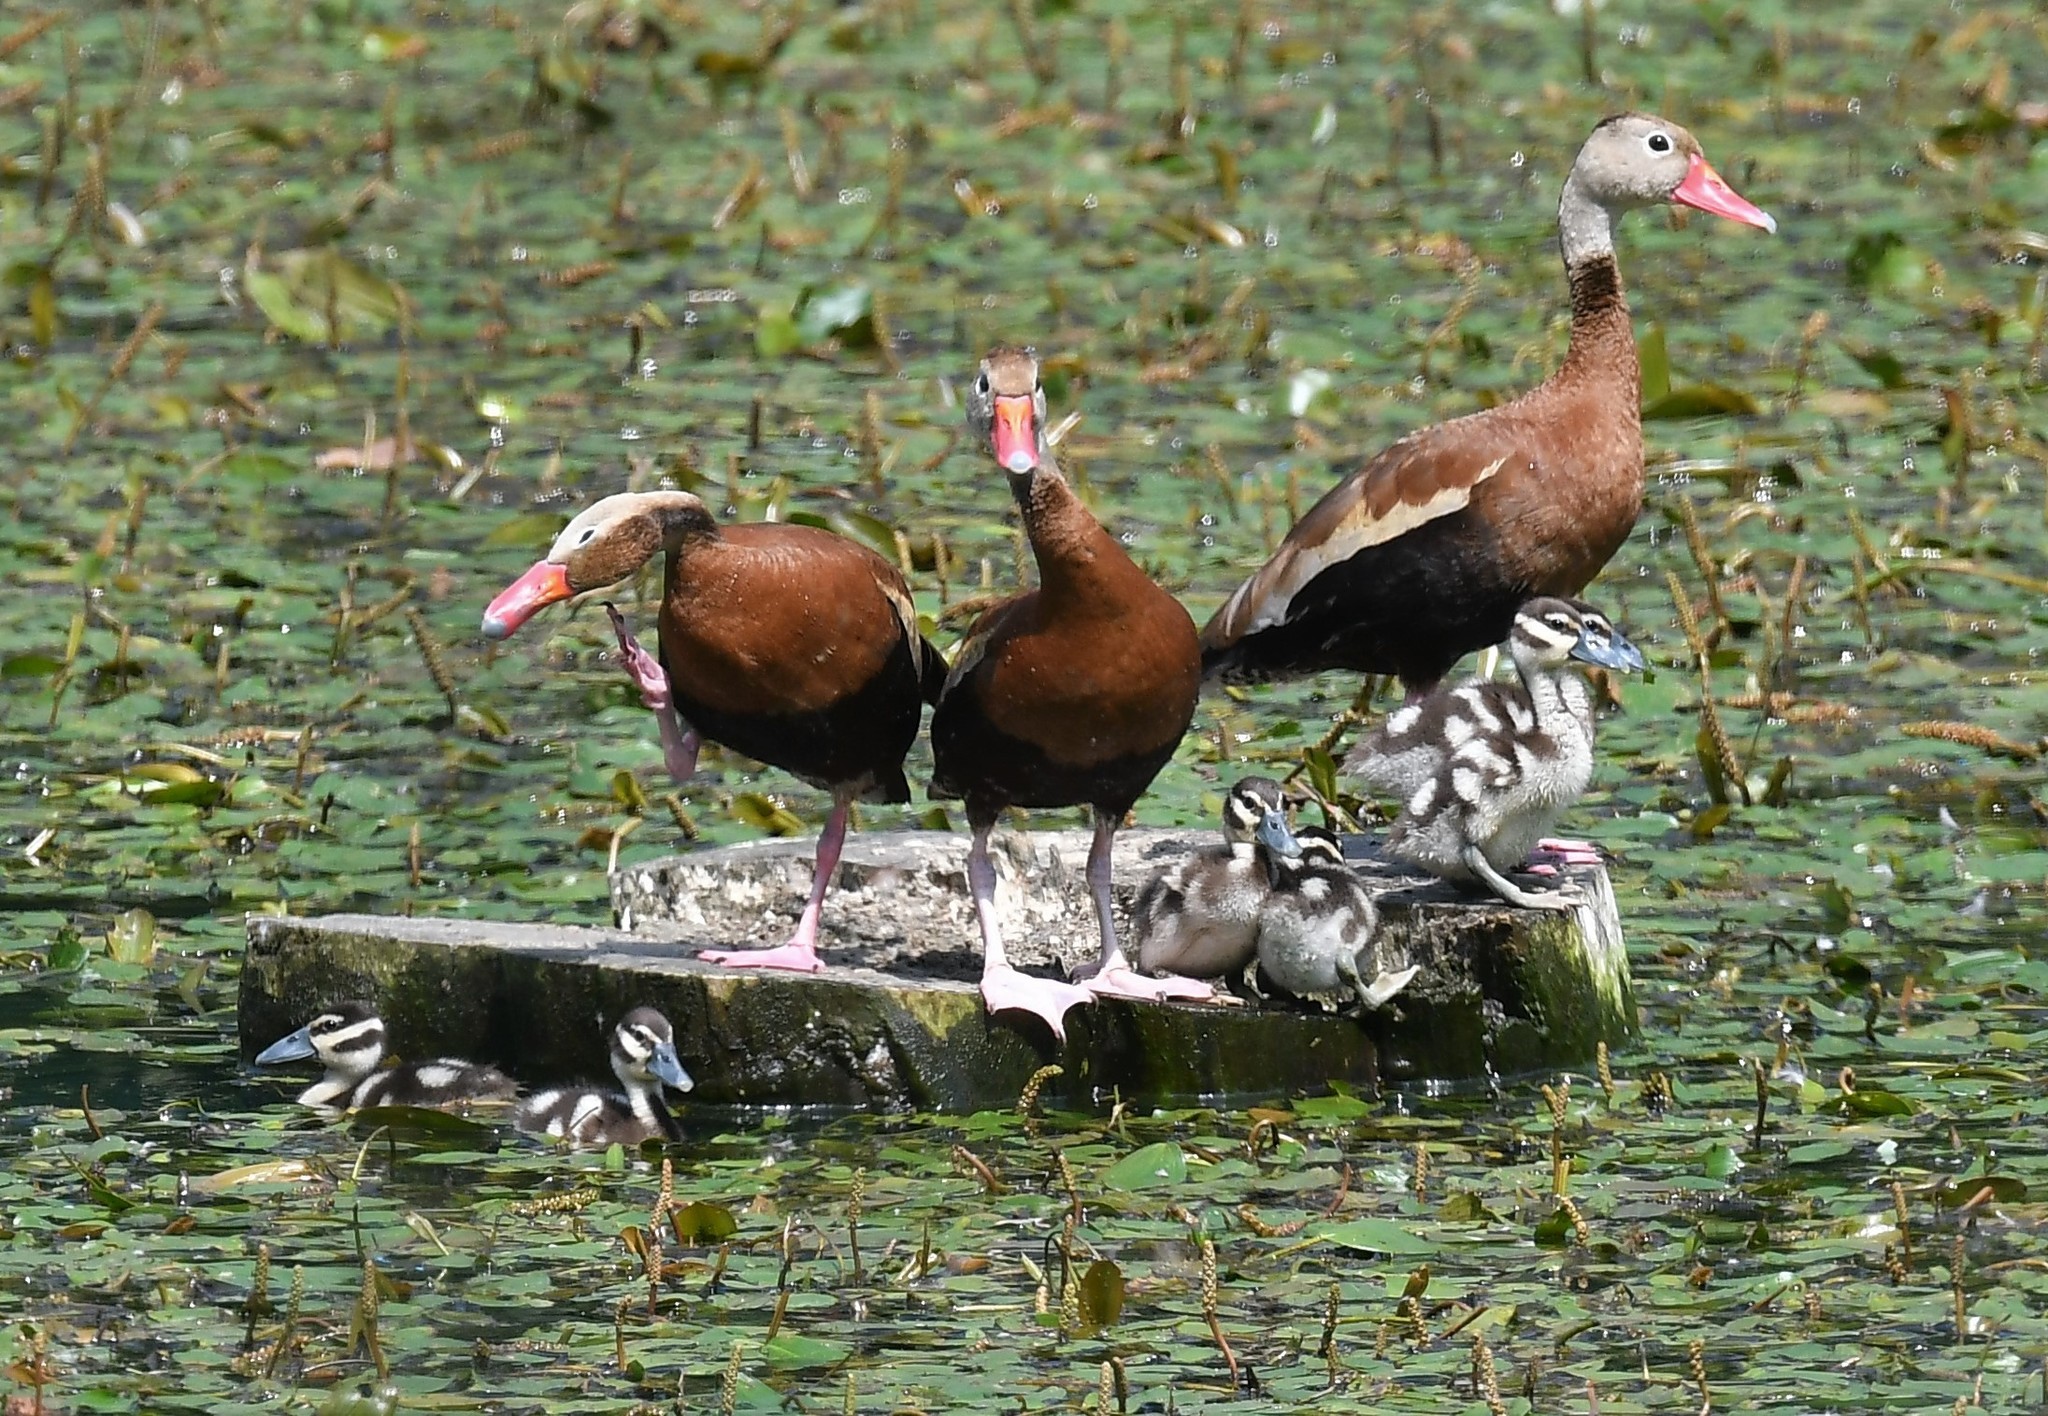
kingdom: Animalia
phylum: Chordata
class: Aves
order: Anseriformes
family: Anatidae
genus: Dendrocygna
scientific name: Dendrocygna autumnalis
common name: Black-bellied whistling duck
